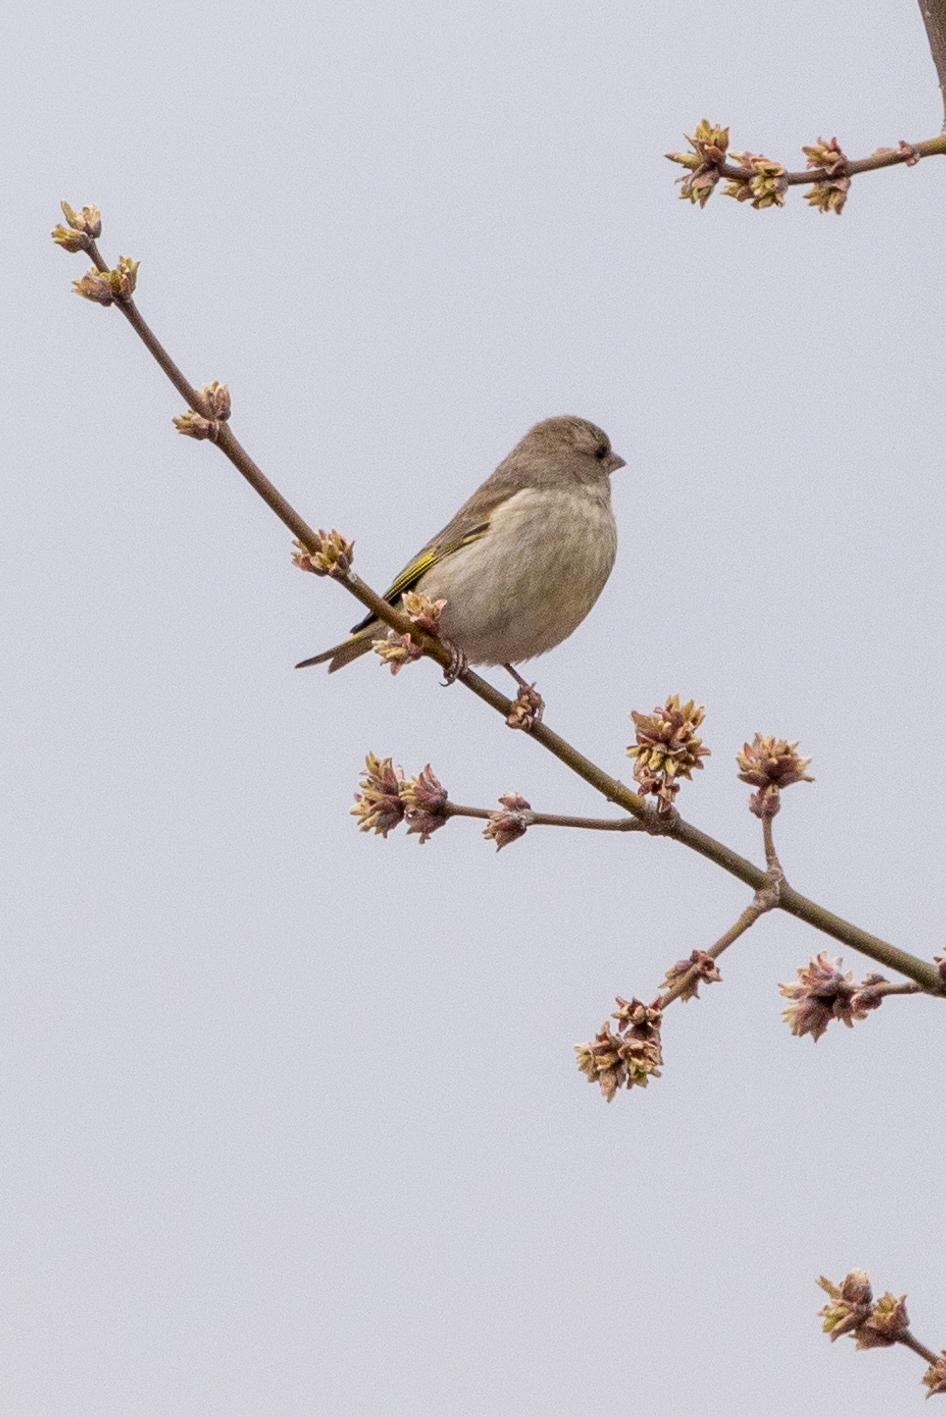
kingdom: Plantae
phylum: Tracheophyta
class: Liliopsida
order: Poales
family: Poaceae
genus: Chloris
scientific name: Chloris chloris
